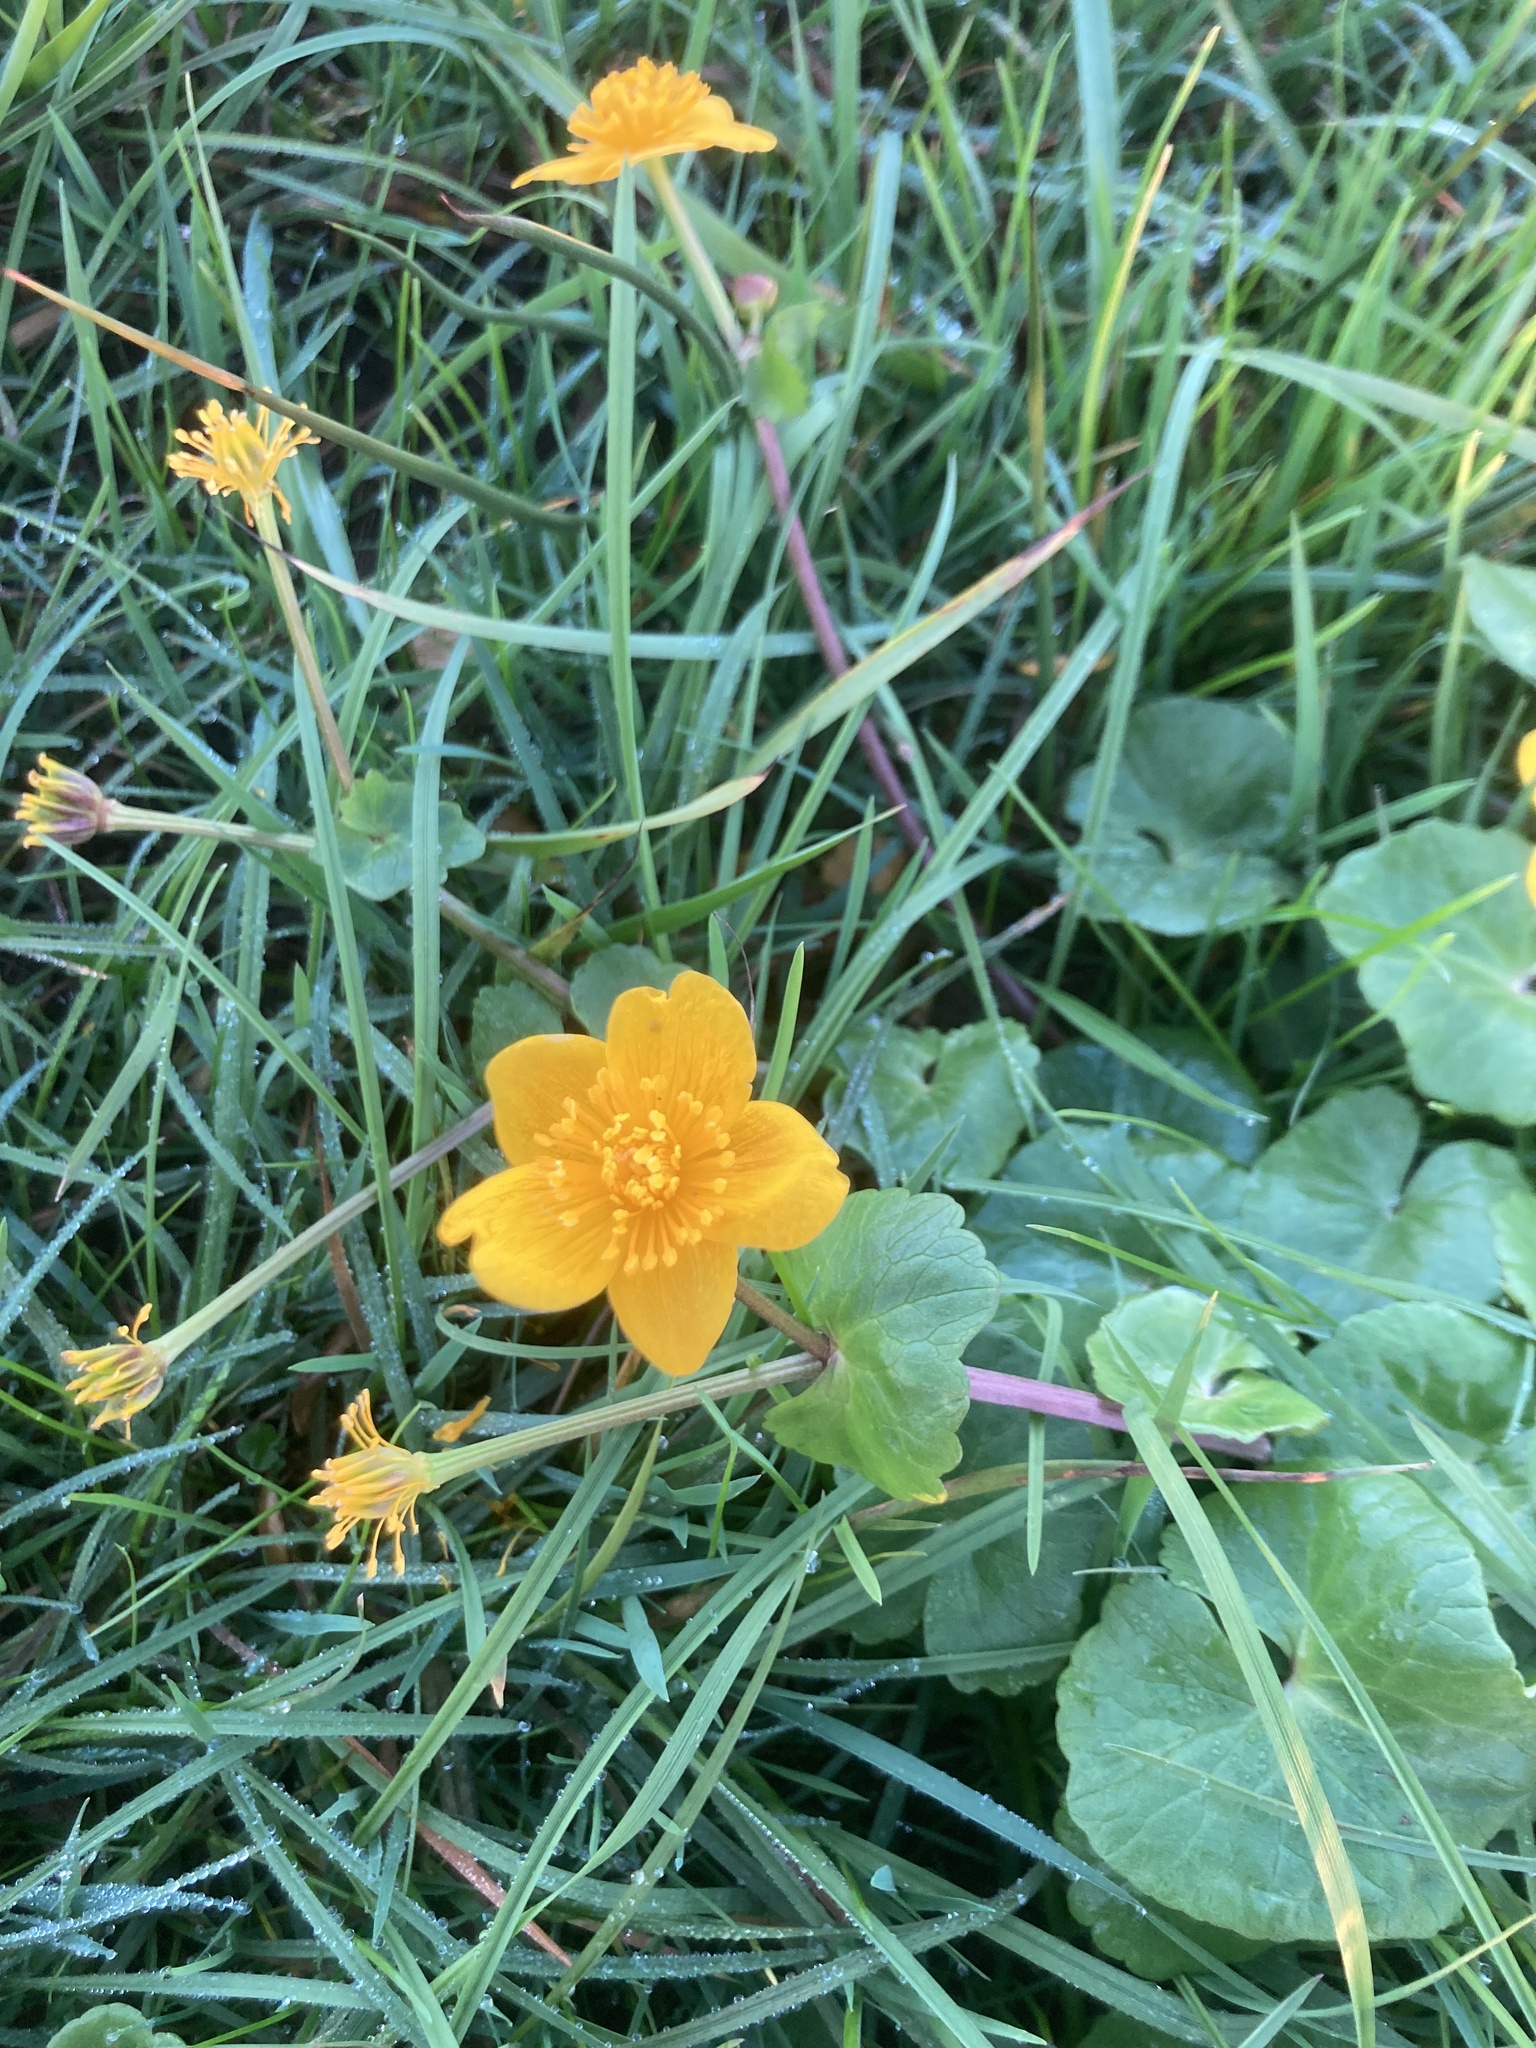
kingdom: Plantae
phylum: Tracheophyta
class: Magnoliopsida
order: Ranunculales
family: Ranunculaceae
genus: Caltha
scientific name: Caltha palustris
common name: Marsh marigold
